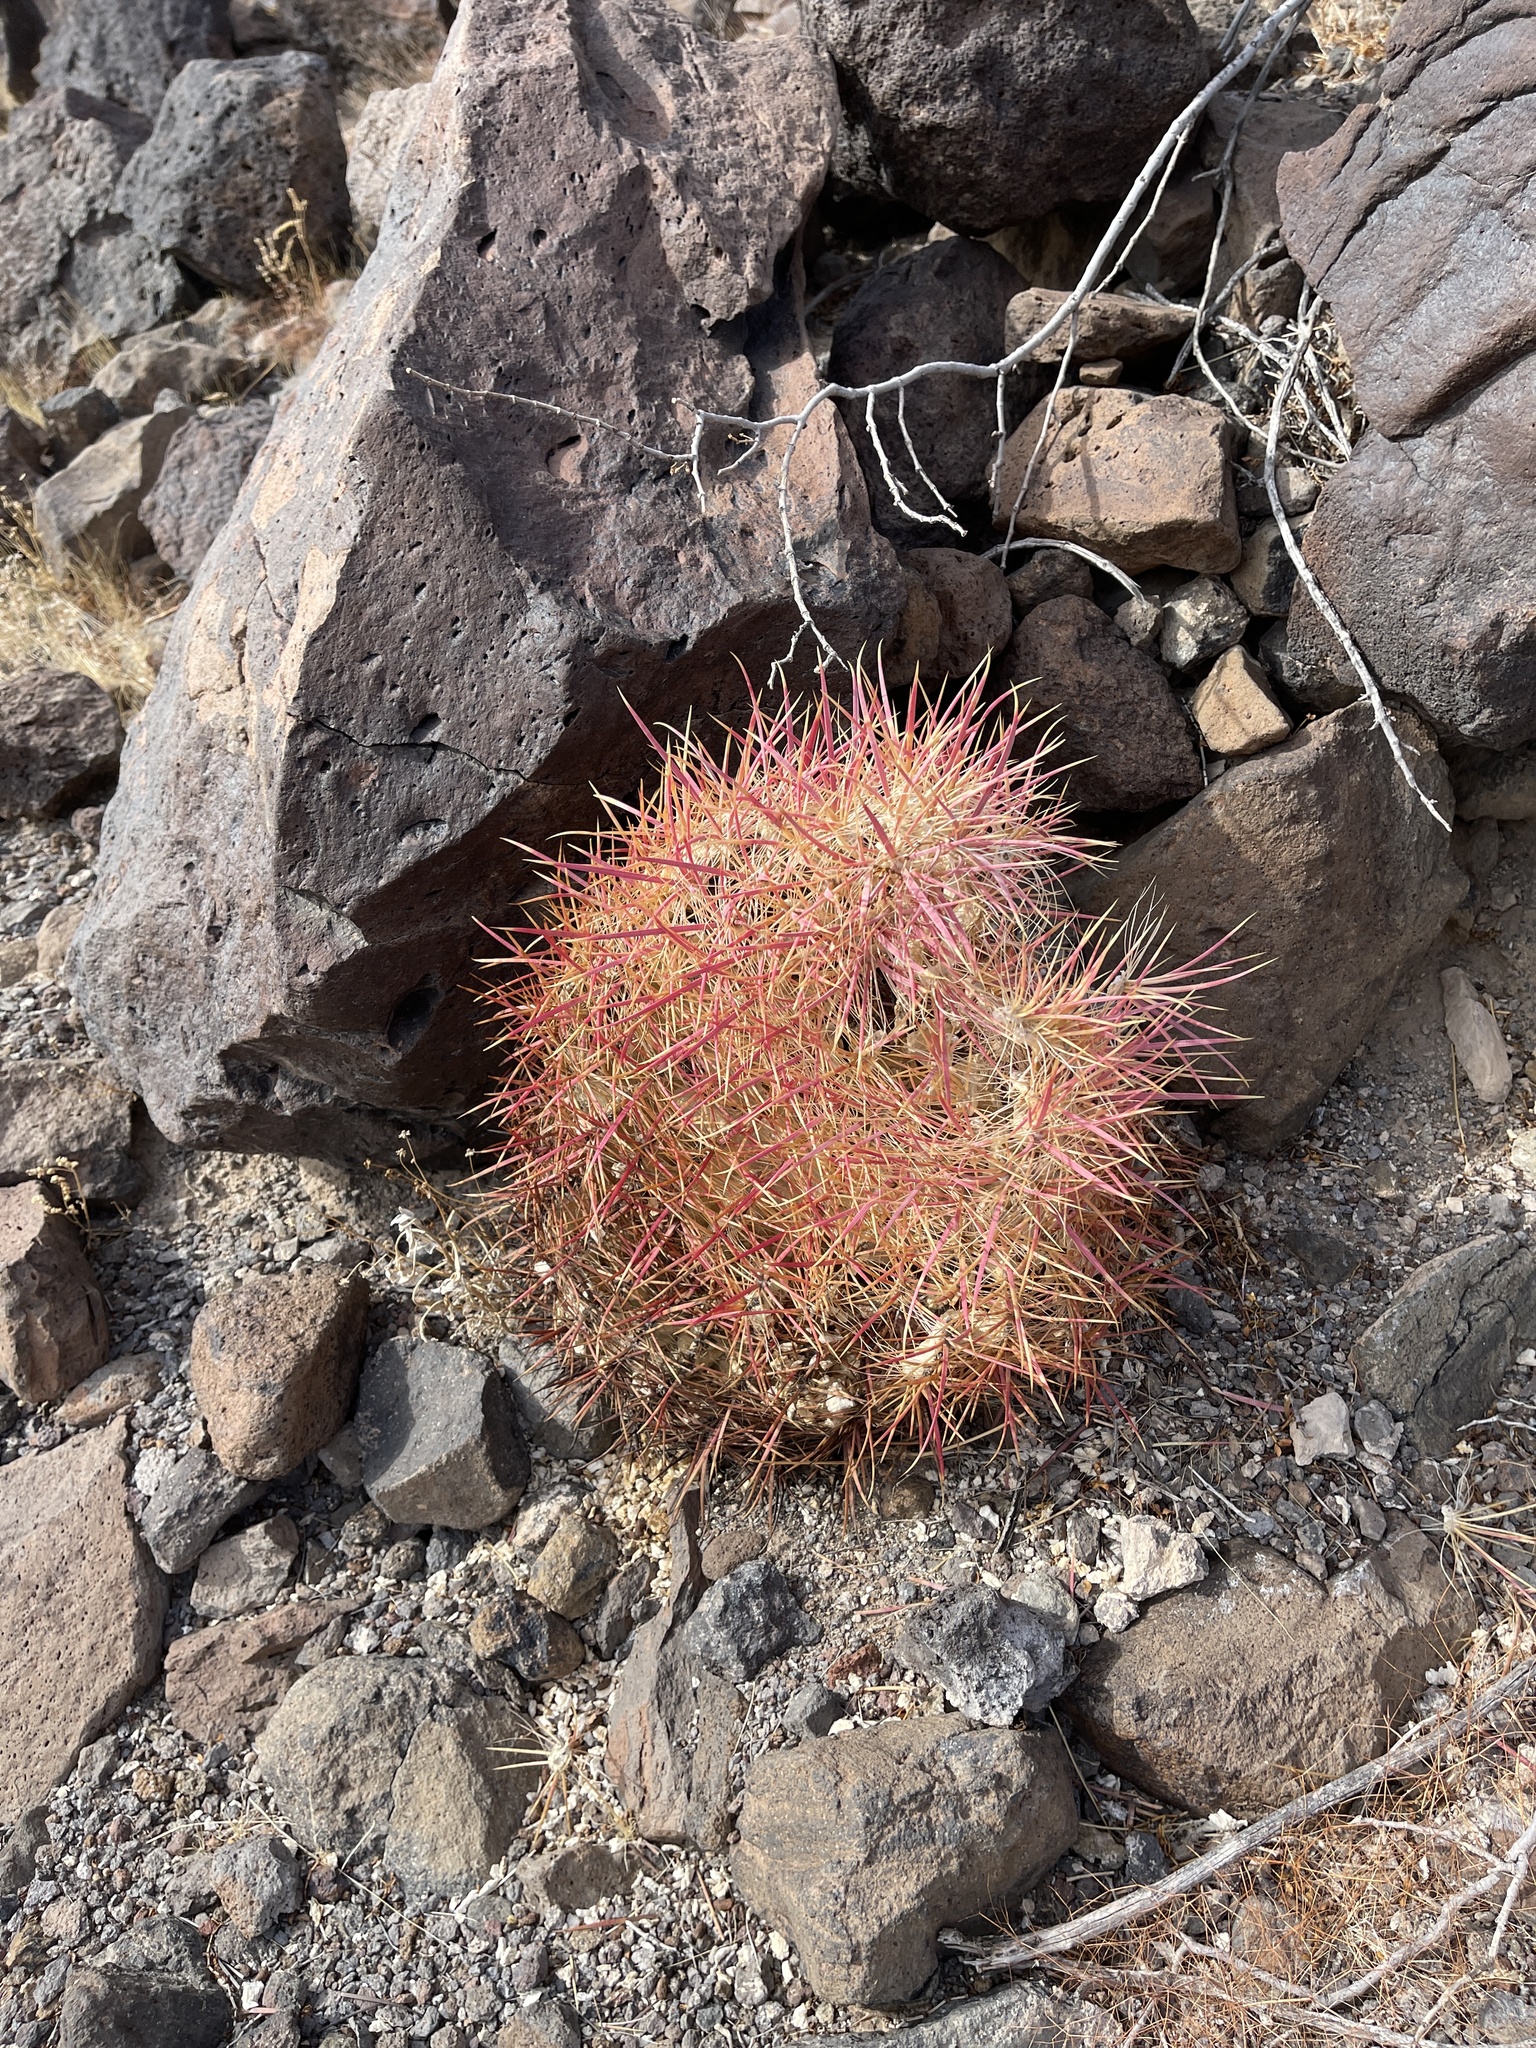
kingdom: Plantae
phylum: Tracheophyta
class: Magnoliopsida
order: Caryophyllales
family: Cactaceae
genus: Sclerocactus
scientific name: Sclerocactus johnsonii
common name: Eight-spine fishhook cactus
